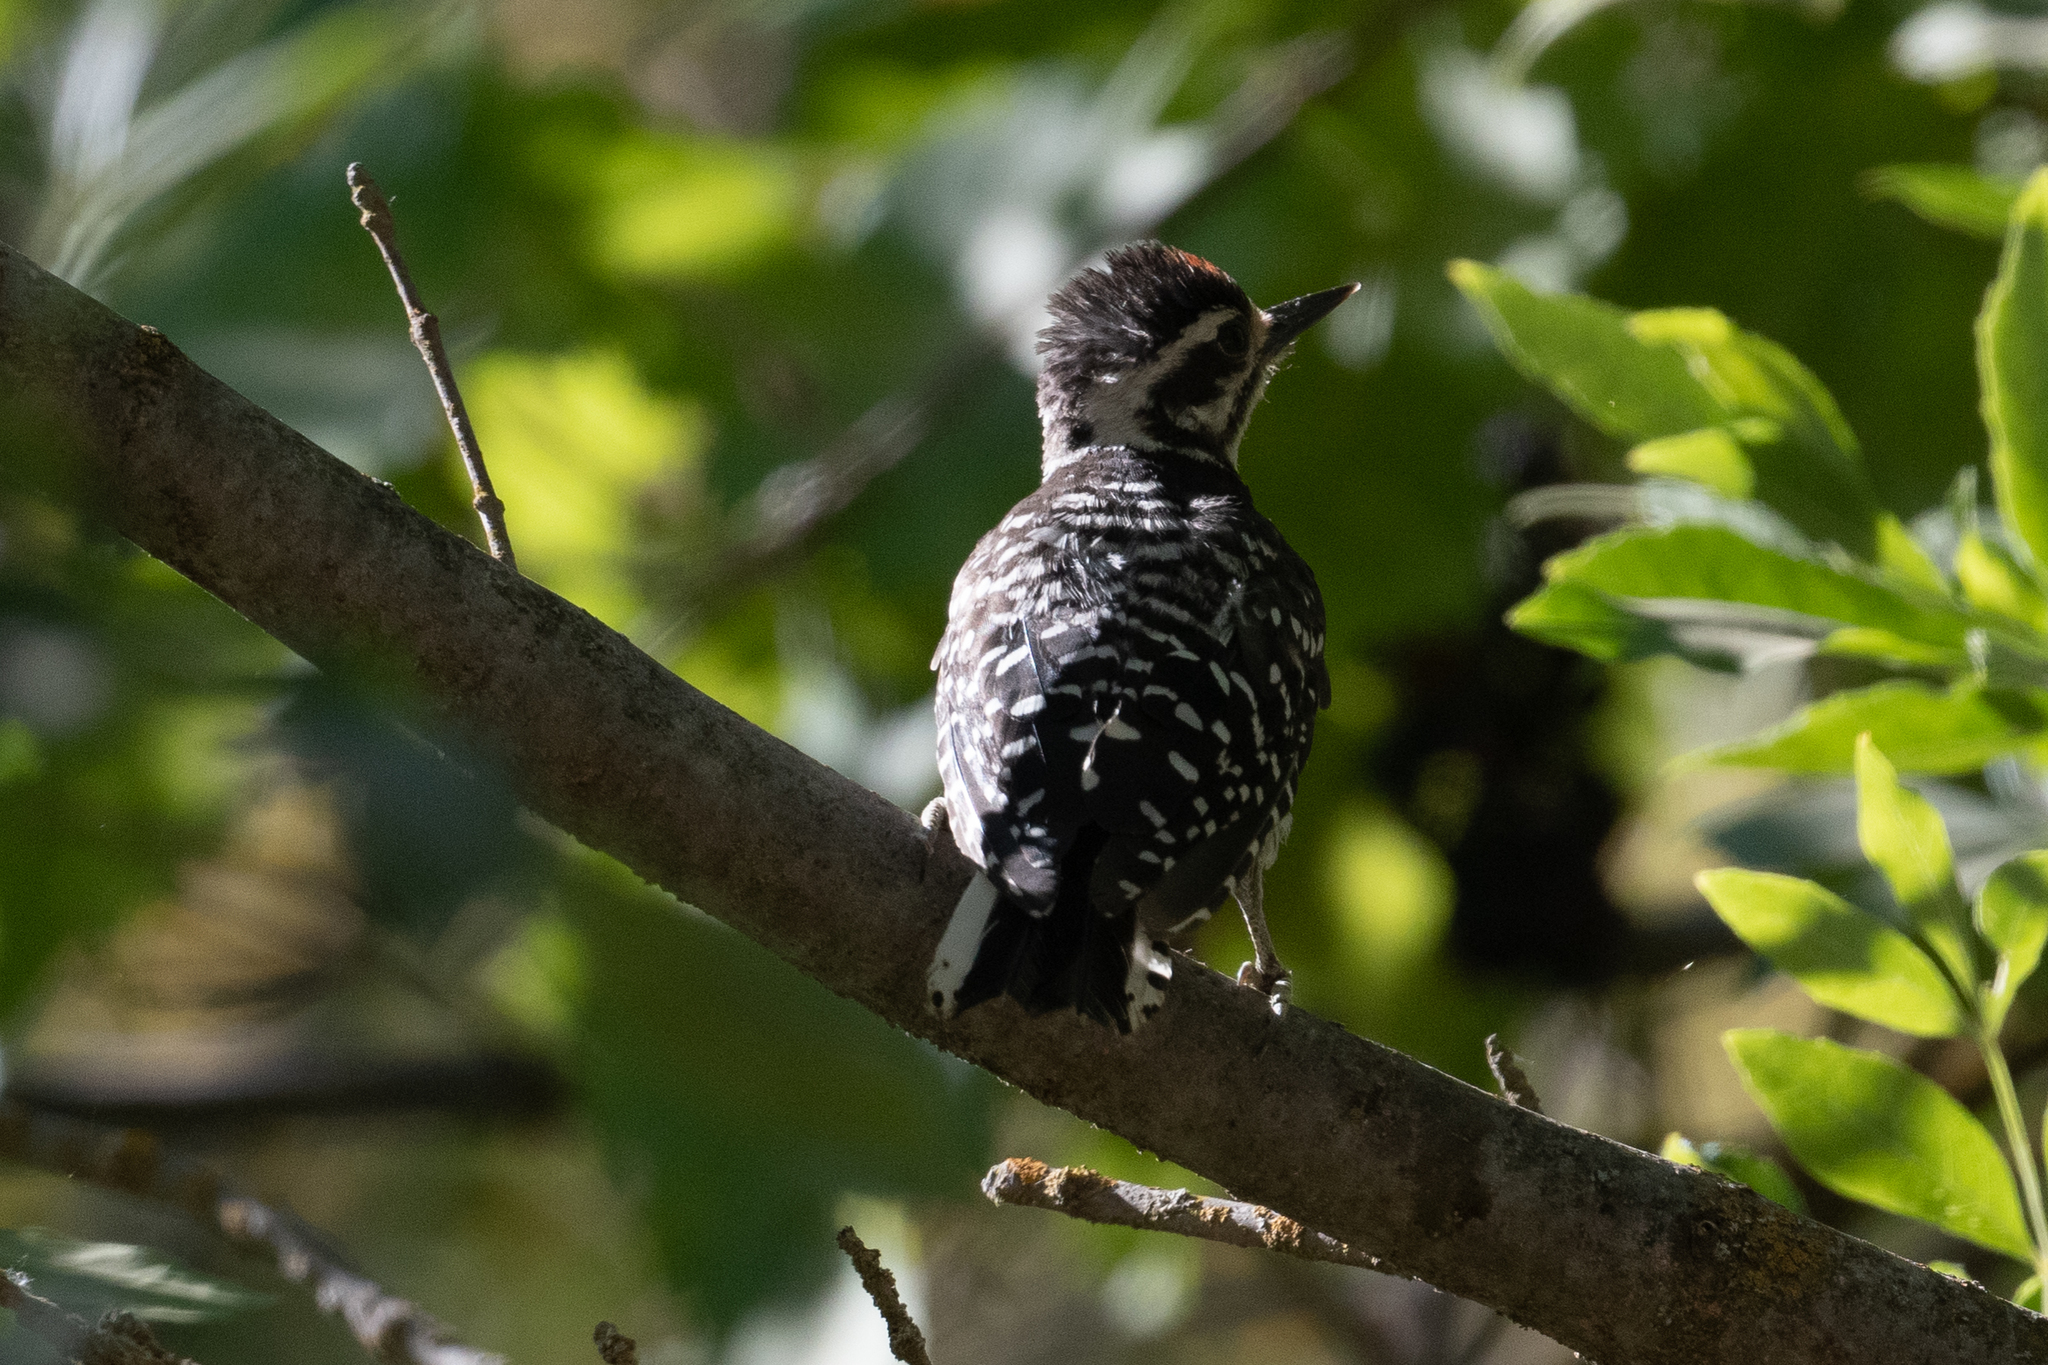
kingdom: Animalia
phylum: Chordata
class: Aves
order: Piciformes
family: Picidae
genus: Dryobates
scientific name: Dryobates nuttallii
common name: Nuttall's woodpecker
